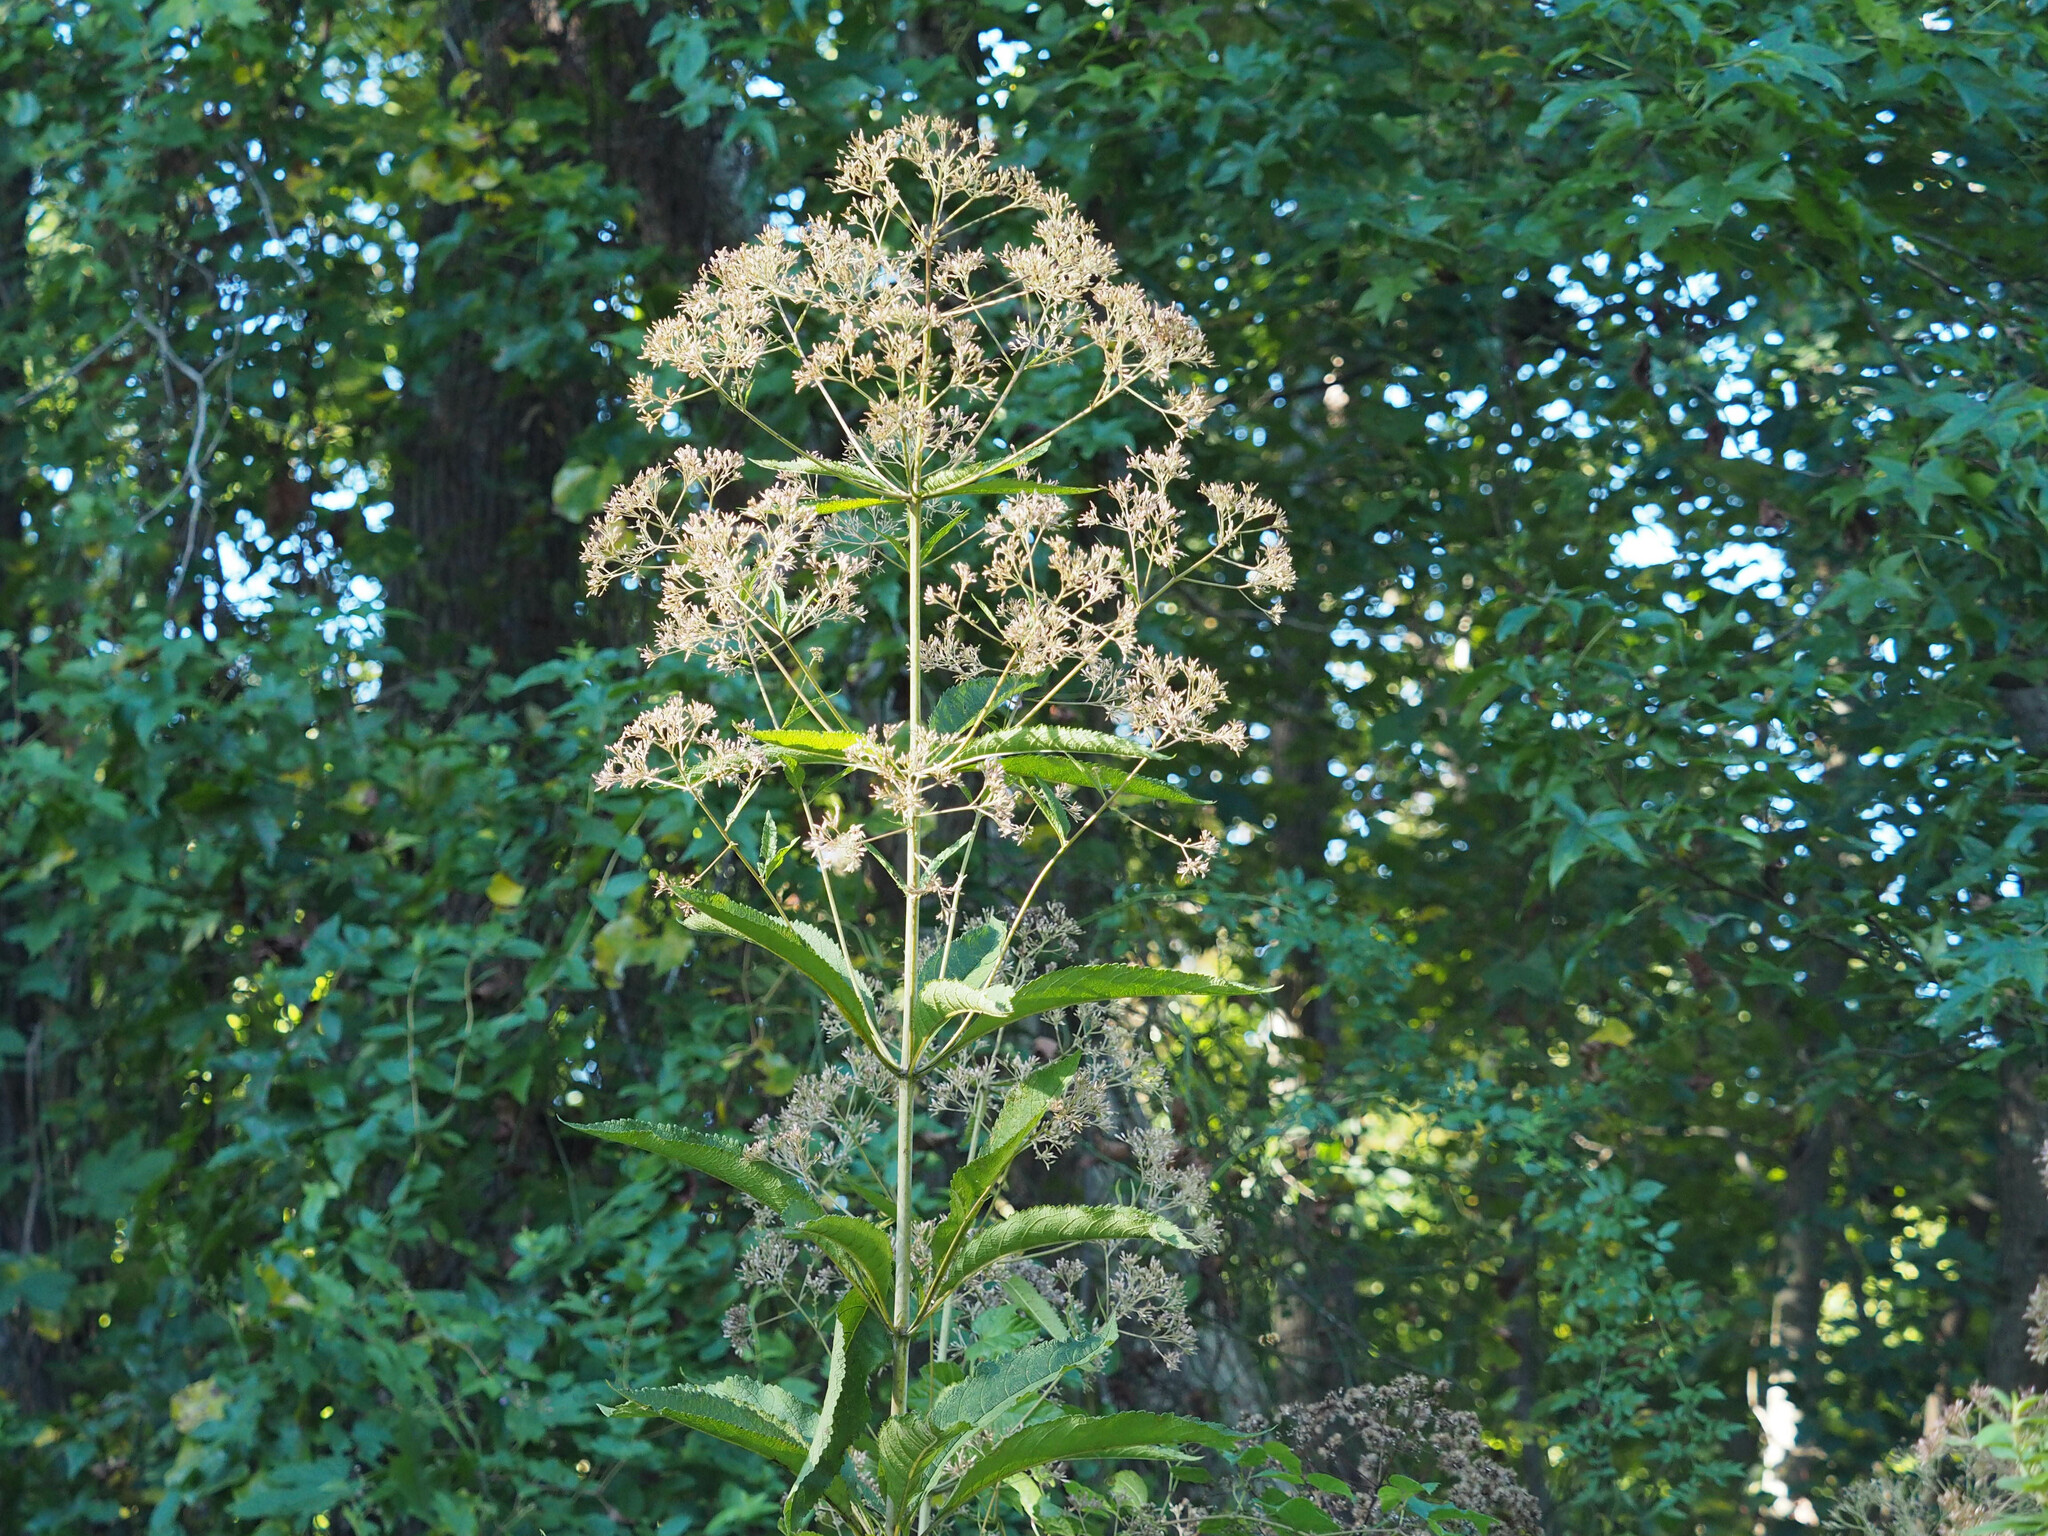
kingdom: Plantae
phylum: Tracheophyta
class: Magnoliopsida
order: Asterales
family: Asteraceae
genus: Eutrochium
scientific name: Eutrochium fistulosum
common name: Trumpetweed
